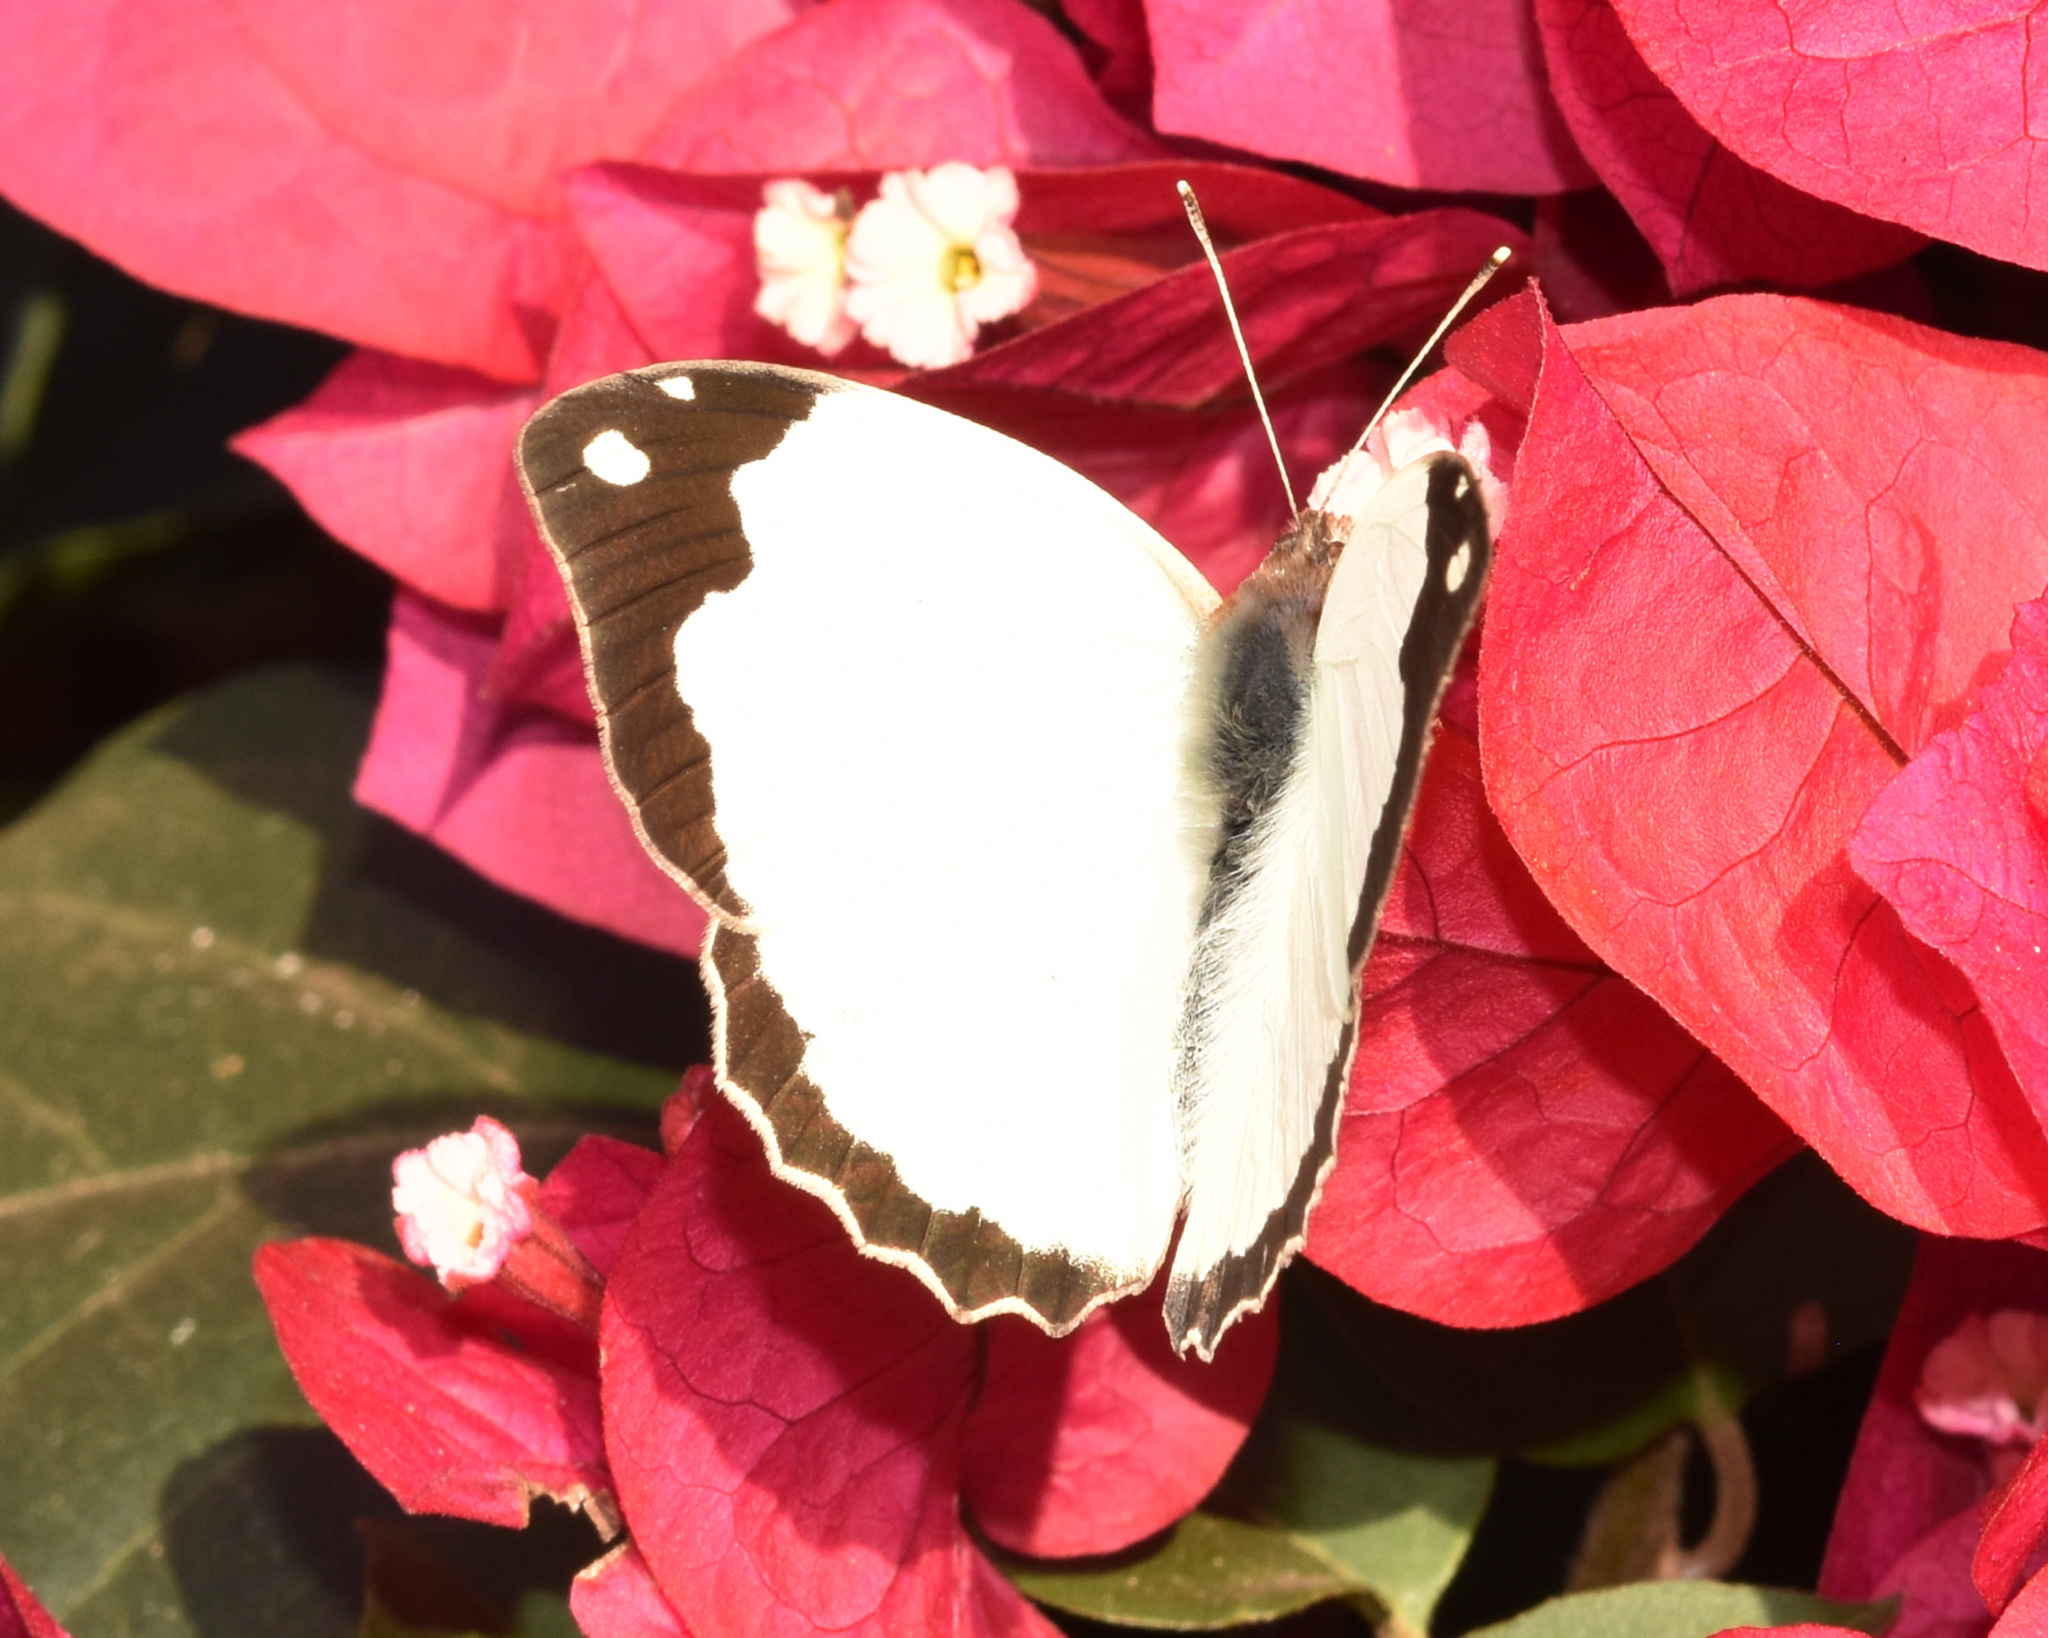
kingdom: Animalia
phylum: Arthropoda
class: Insecta
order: Lepidoptera
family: Pieridae
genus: Eronia
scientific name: Eronia cleodora
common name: Vine-leaf vagrant
